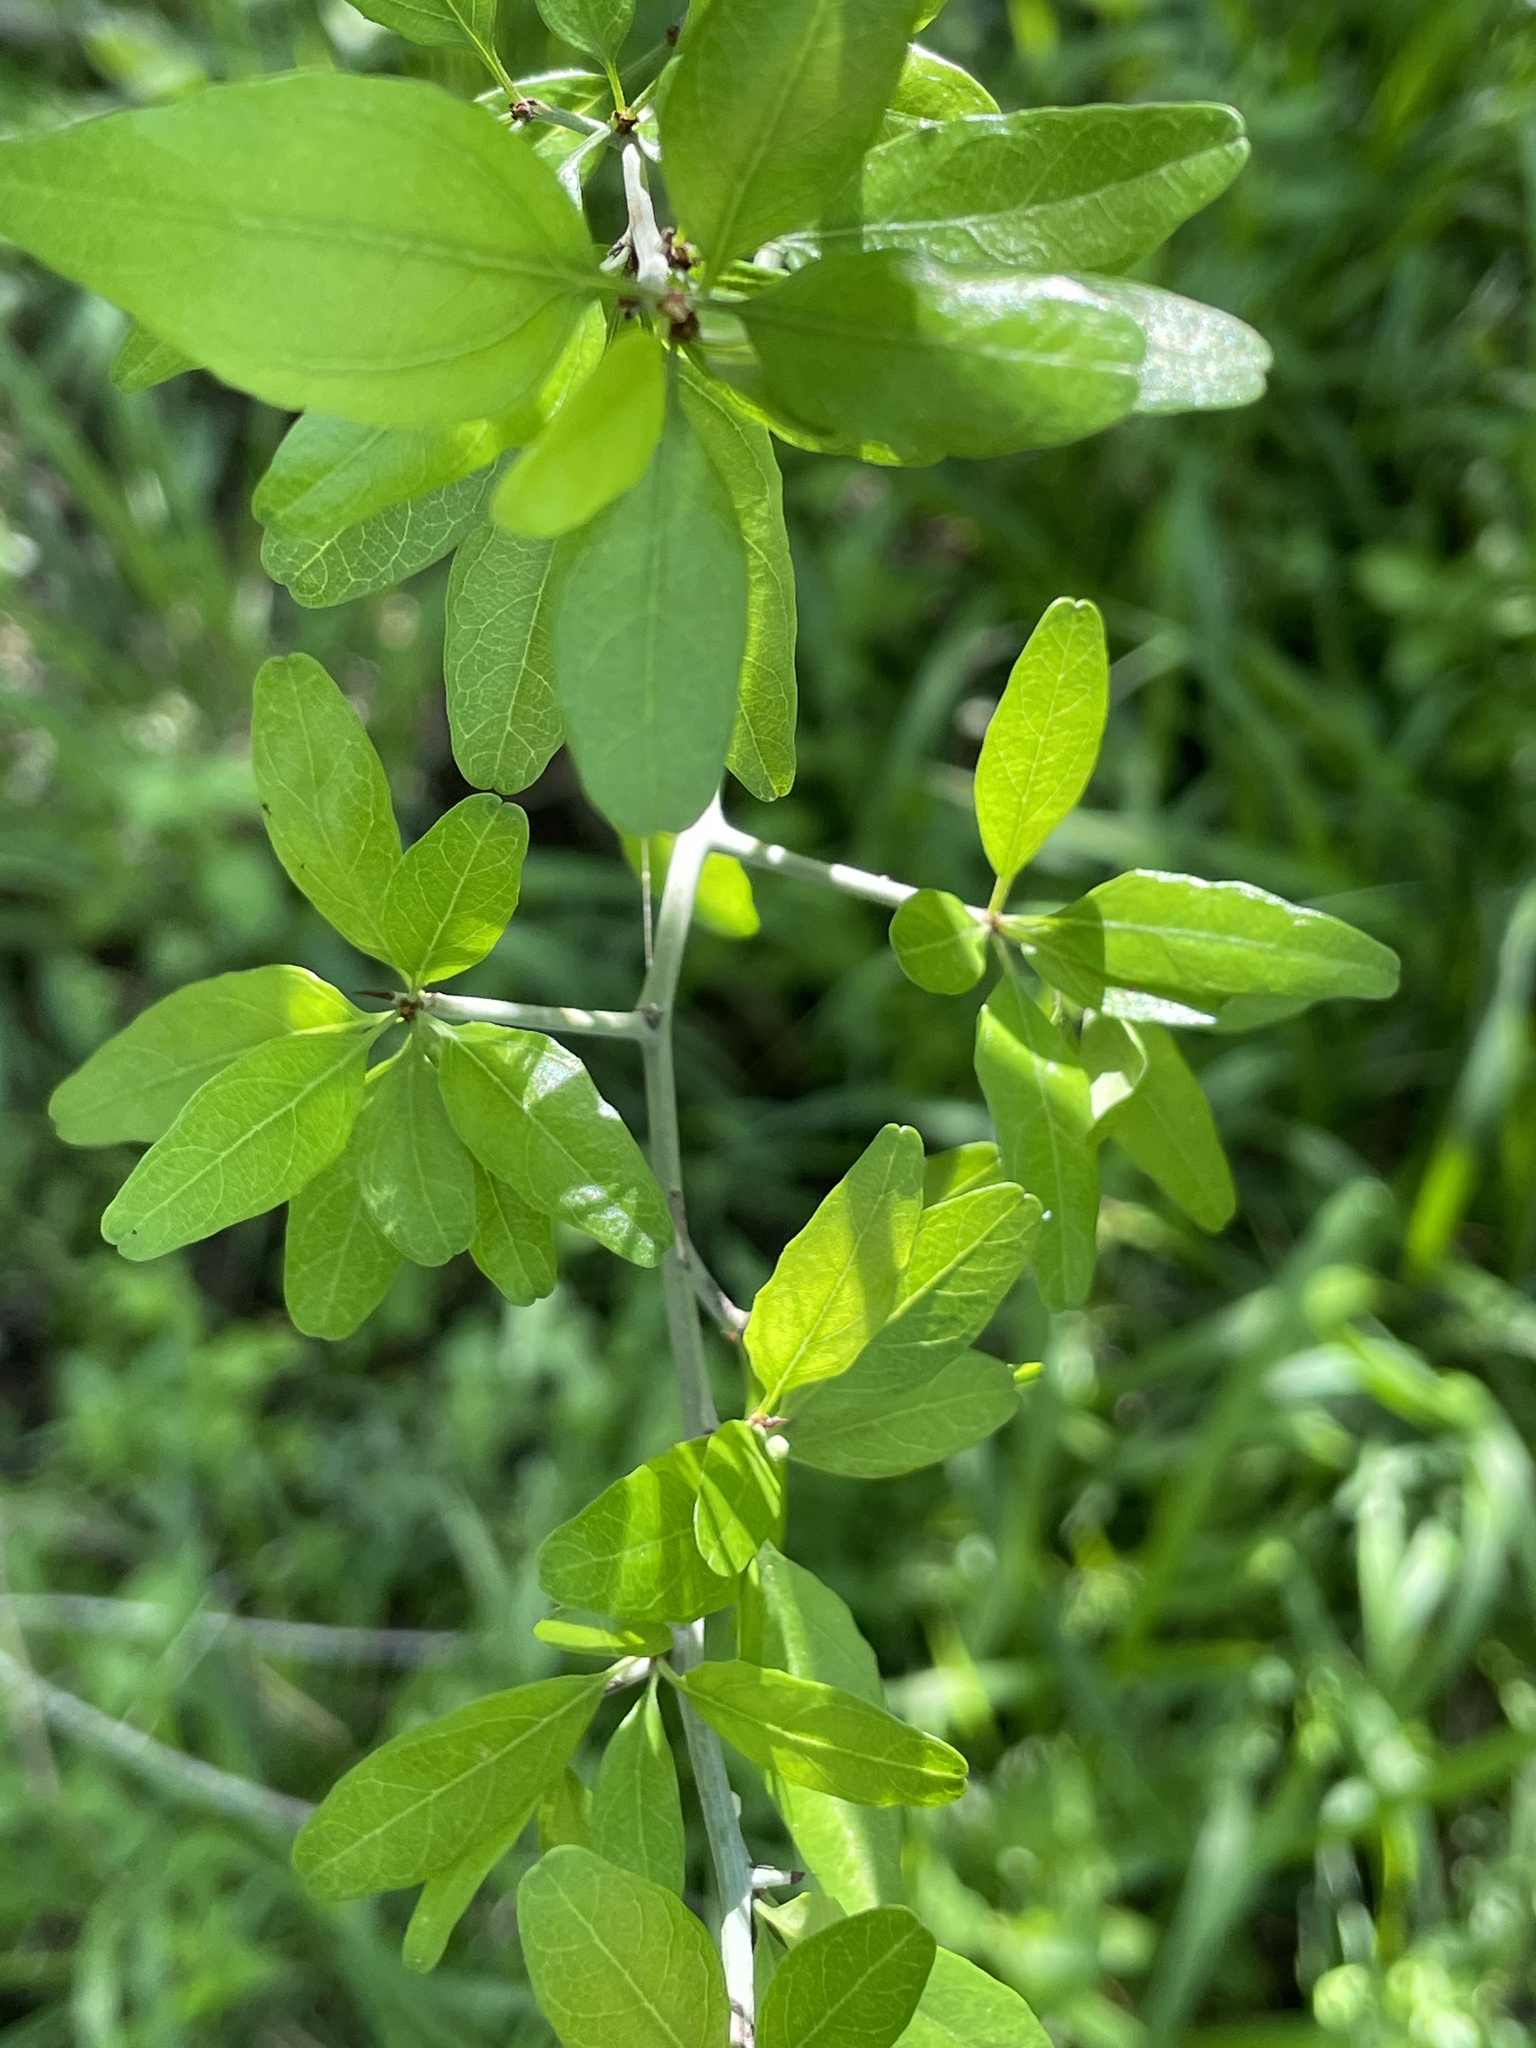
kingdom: Plantae
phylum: Tracheophyta
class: Magnoliopsida
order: Rosales
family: Rhamnaceae
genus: Sarcomphalus
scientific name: Sarcomphalus obtusifolius
